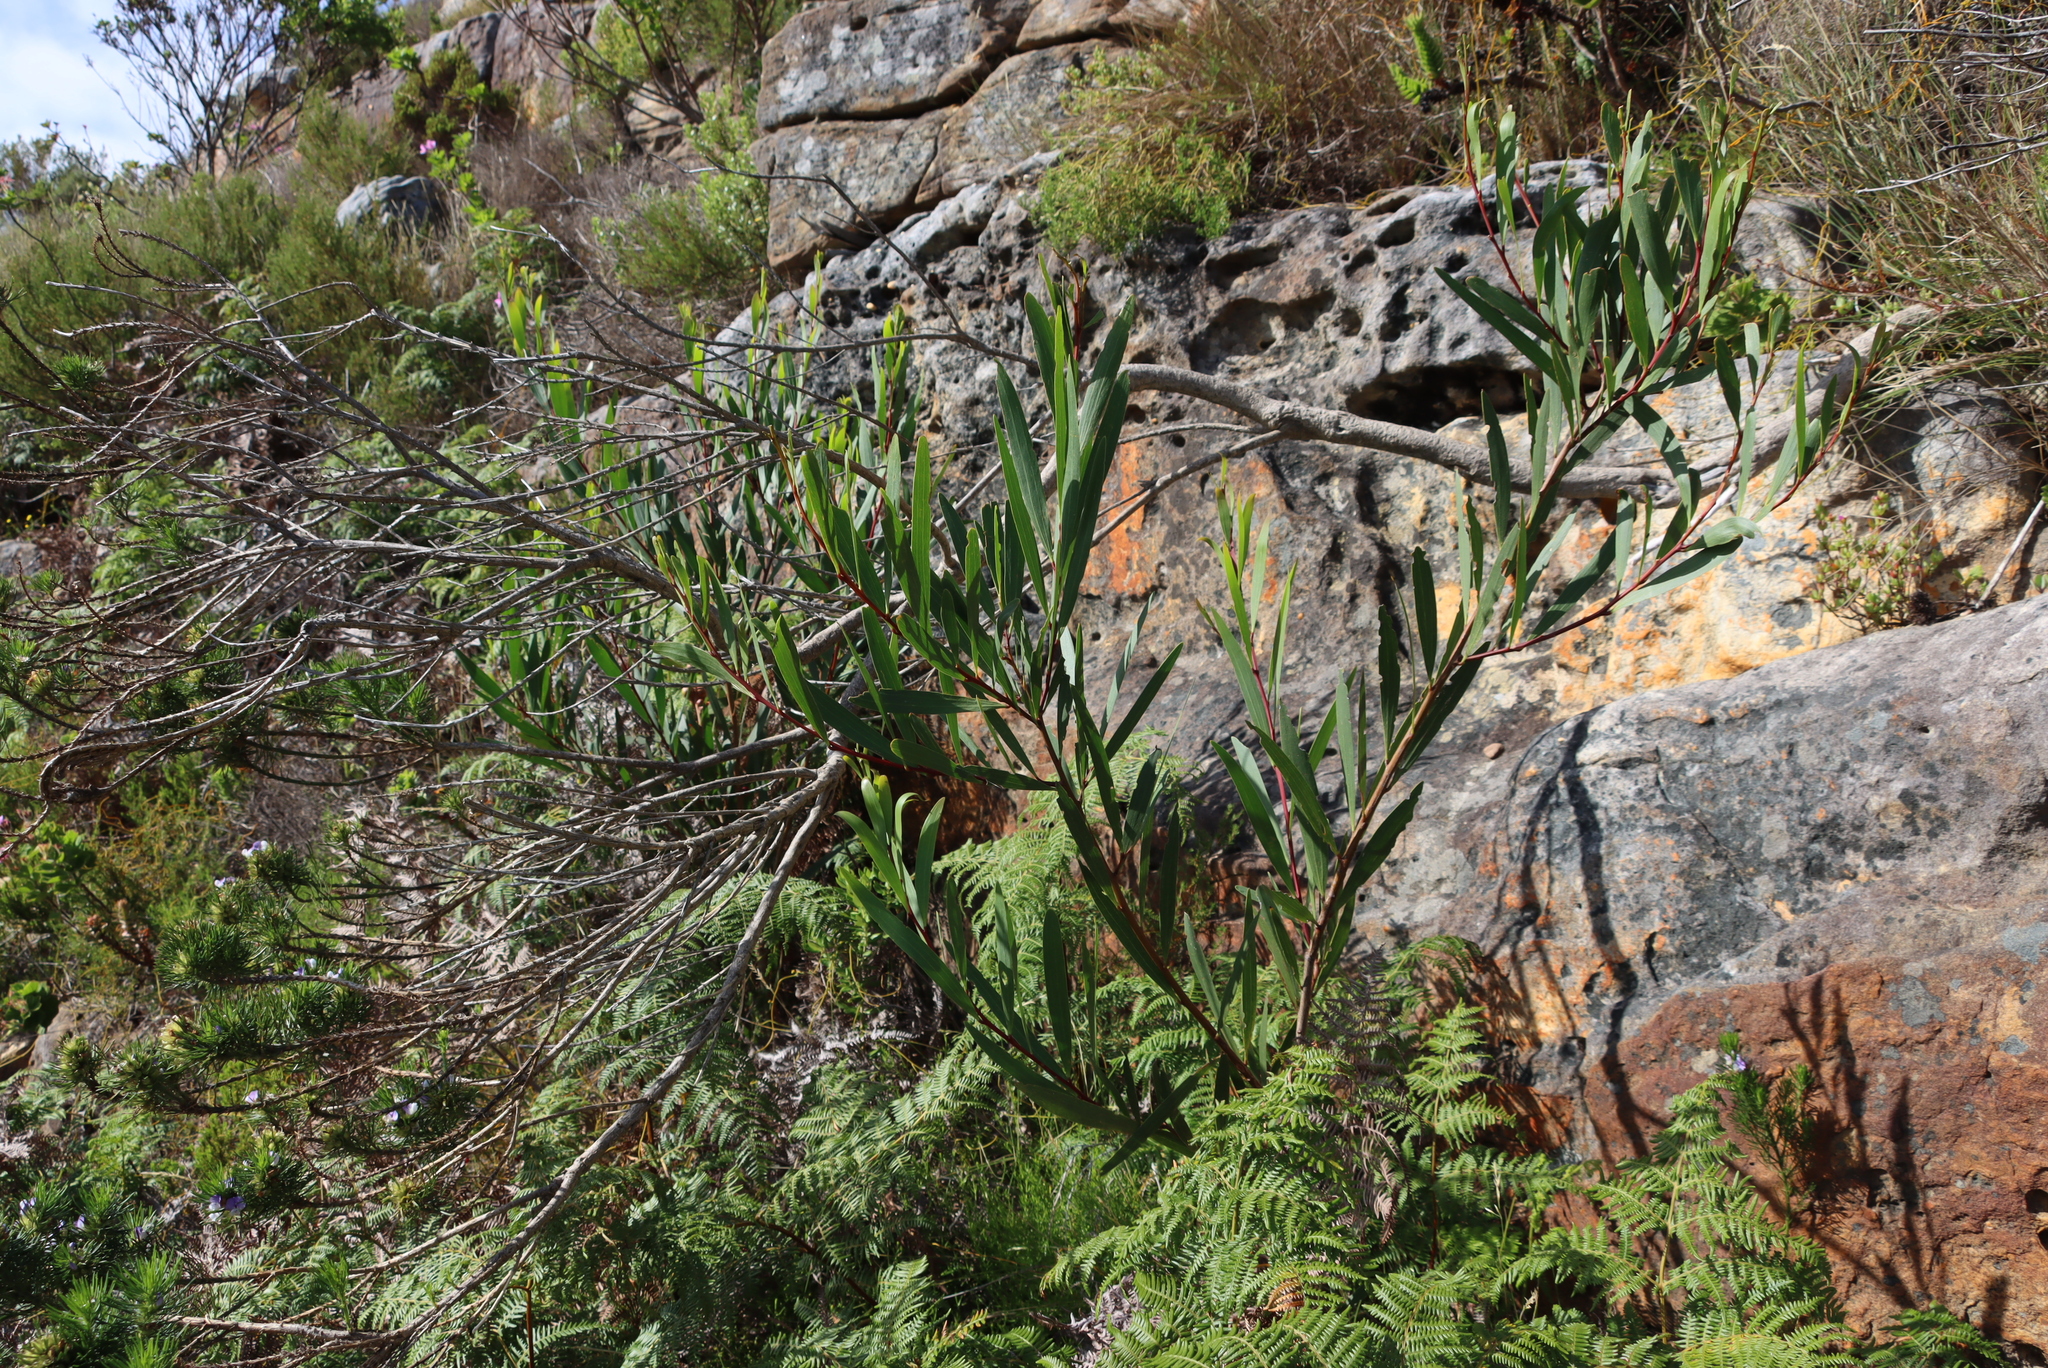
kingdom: Plantae
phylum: Tracheophyta
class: Magnoliopsida
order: Fabales
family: Fabaceae
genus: Acacia
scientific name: Acacia longifolia
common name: Sydney golden wattle
